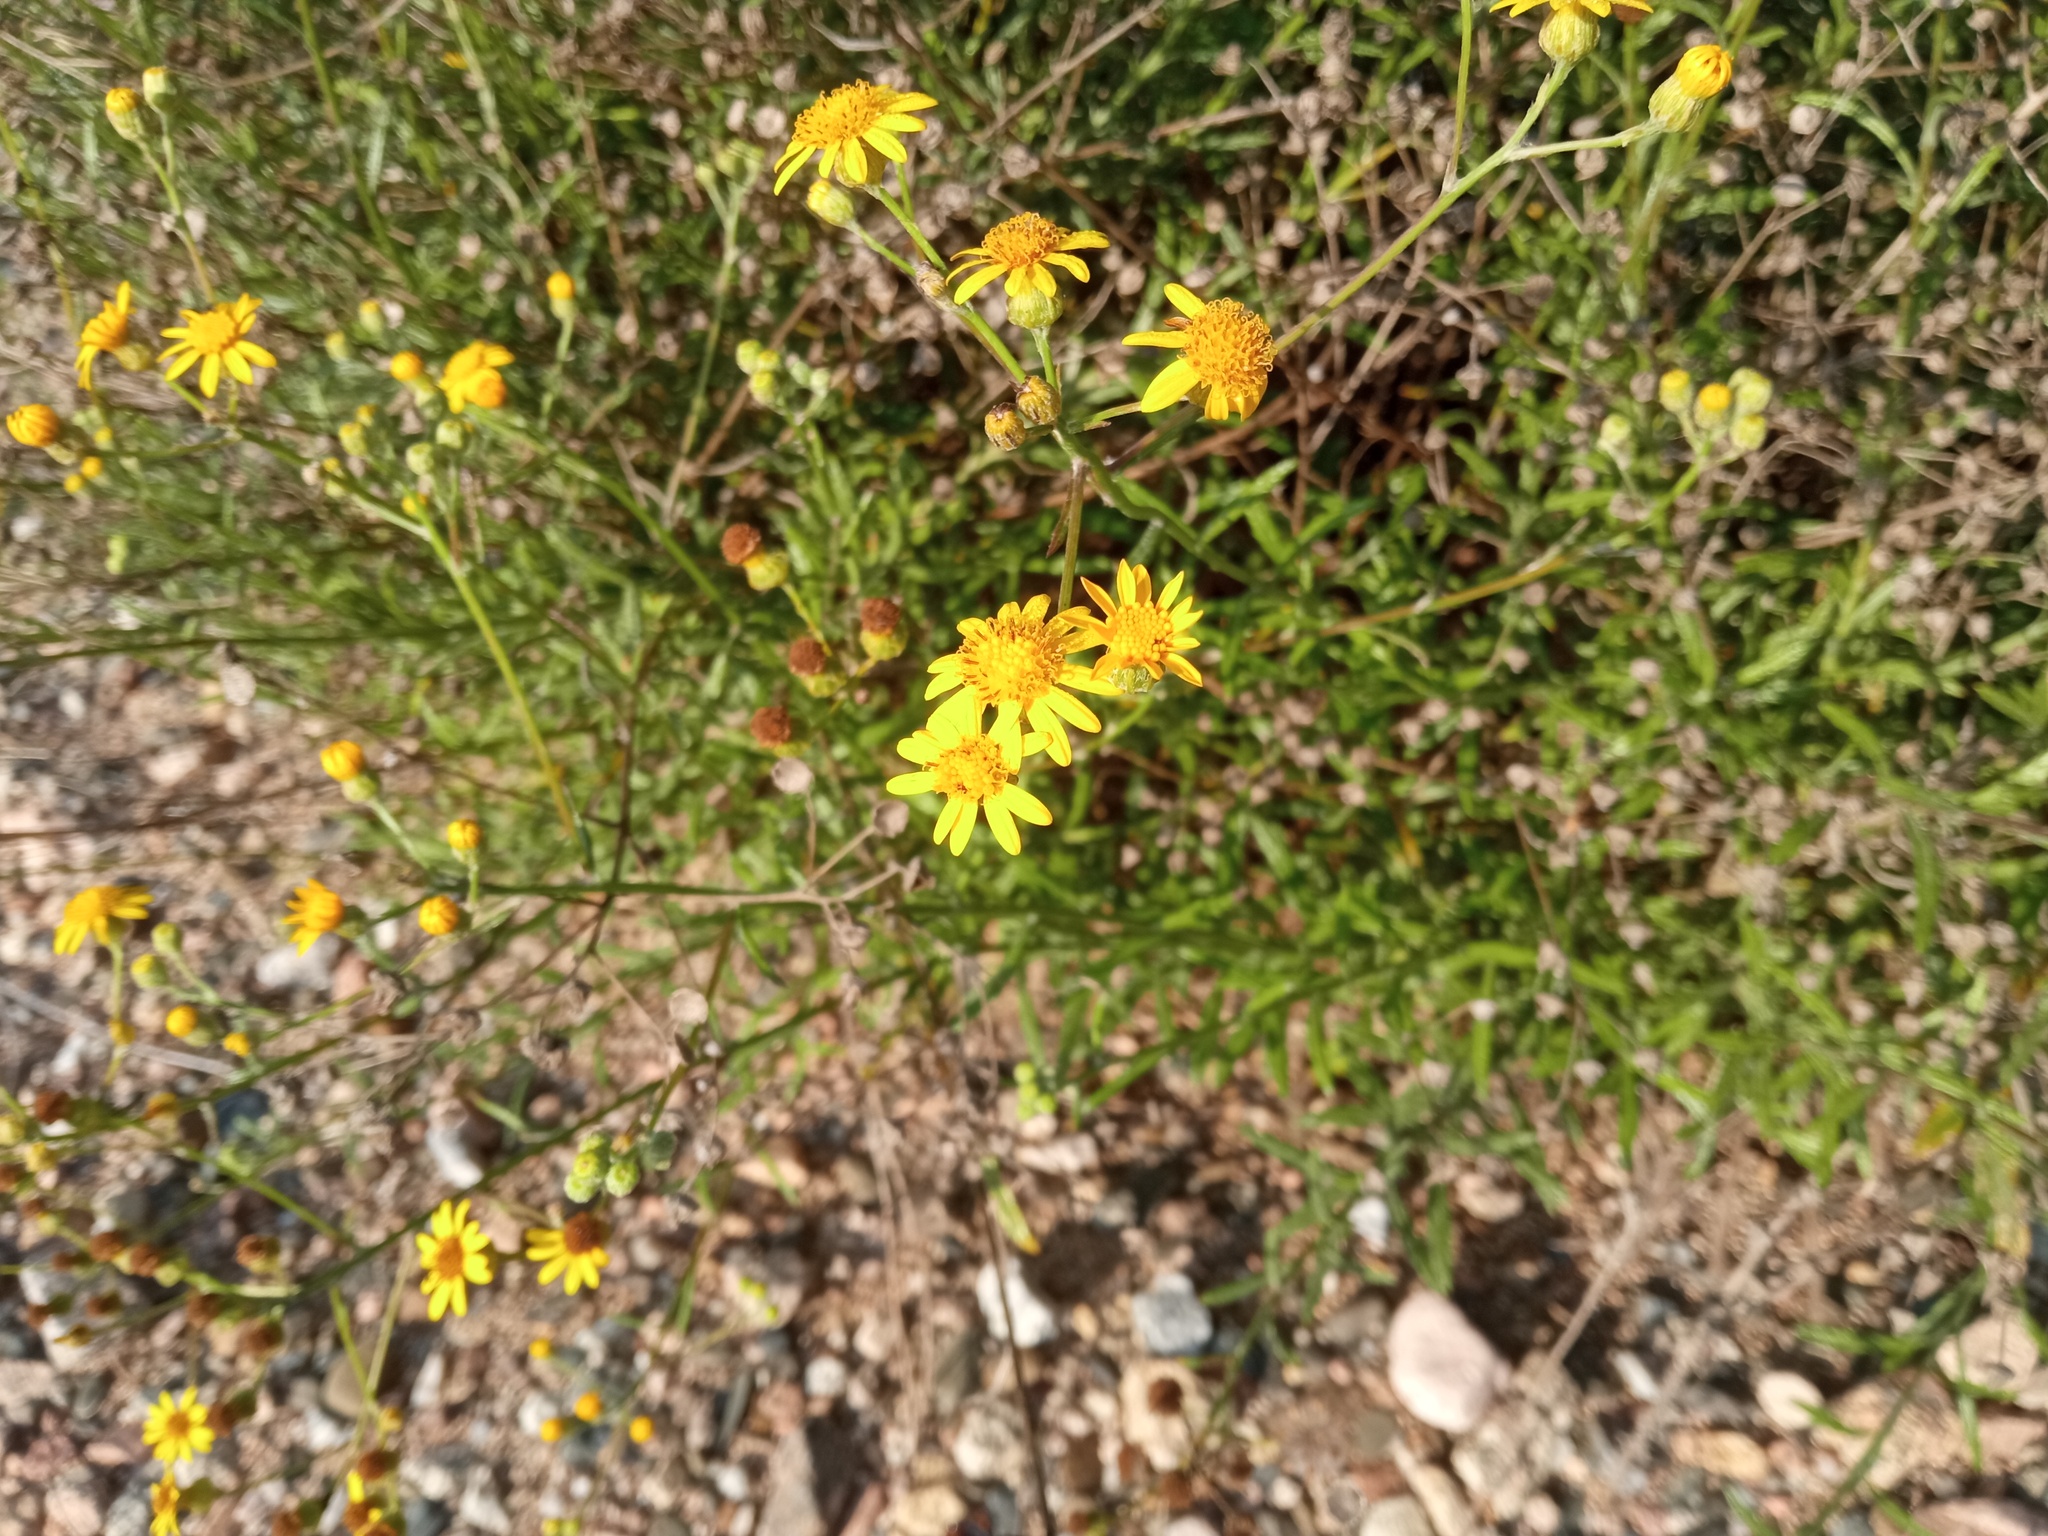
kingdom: Plantae
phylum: Tracheophyta
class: Magnoliopsida
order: Asterales
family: Asteraceae
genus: Senecio
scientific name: Senecio pterophorus
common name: Shoddy ragwort
